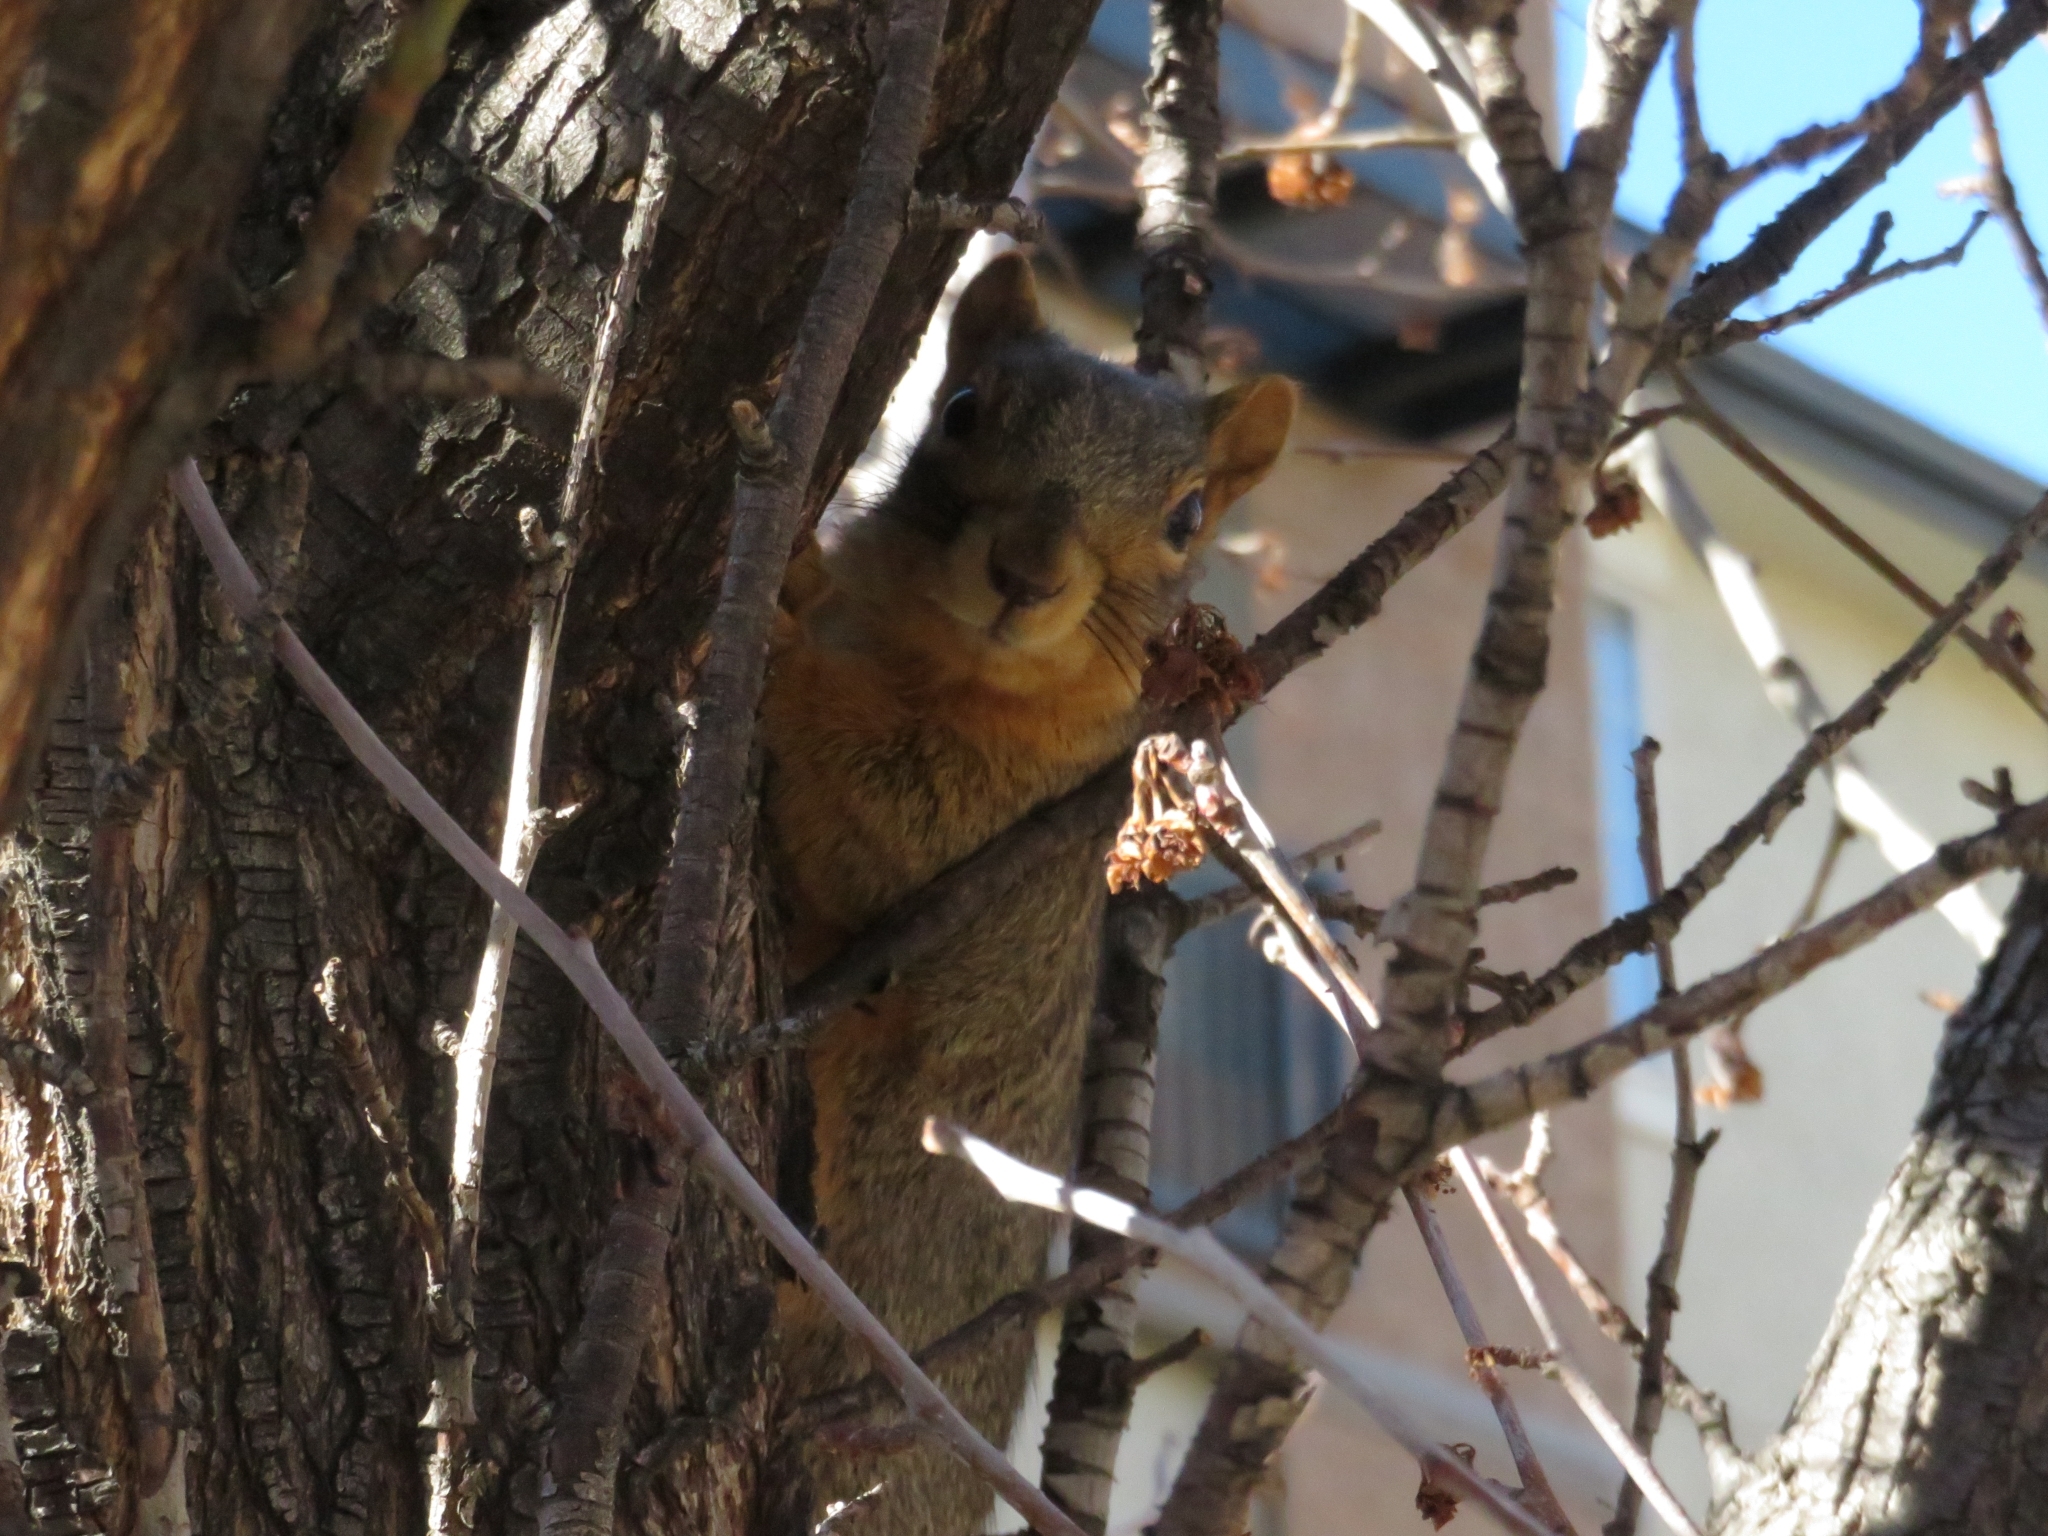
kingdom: Animalia
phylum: Chordata
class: Mammalia
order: Rodentia
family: Sciuridae
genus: Sciurus
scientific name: Sciurus niger
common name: Fox squirrel
